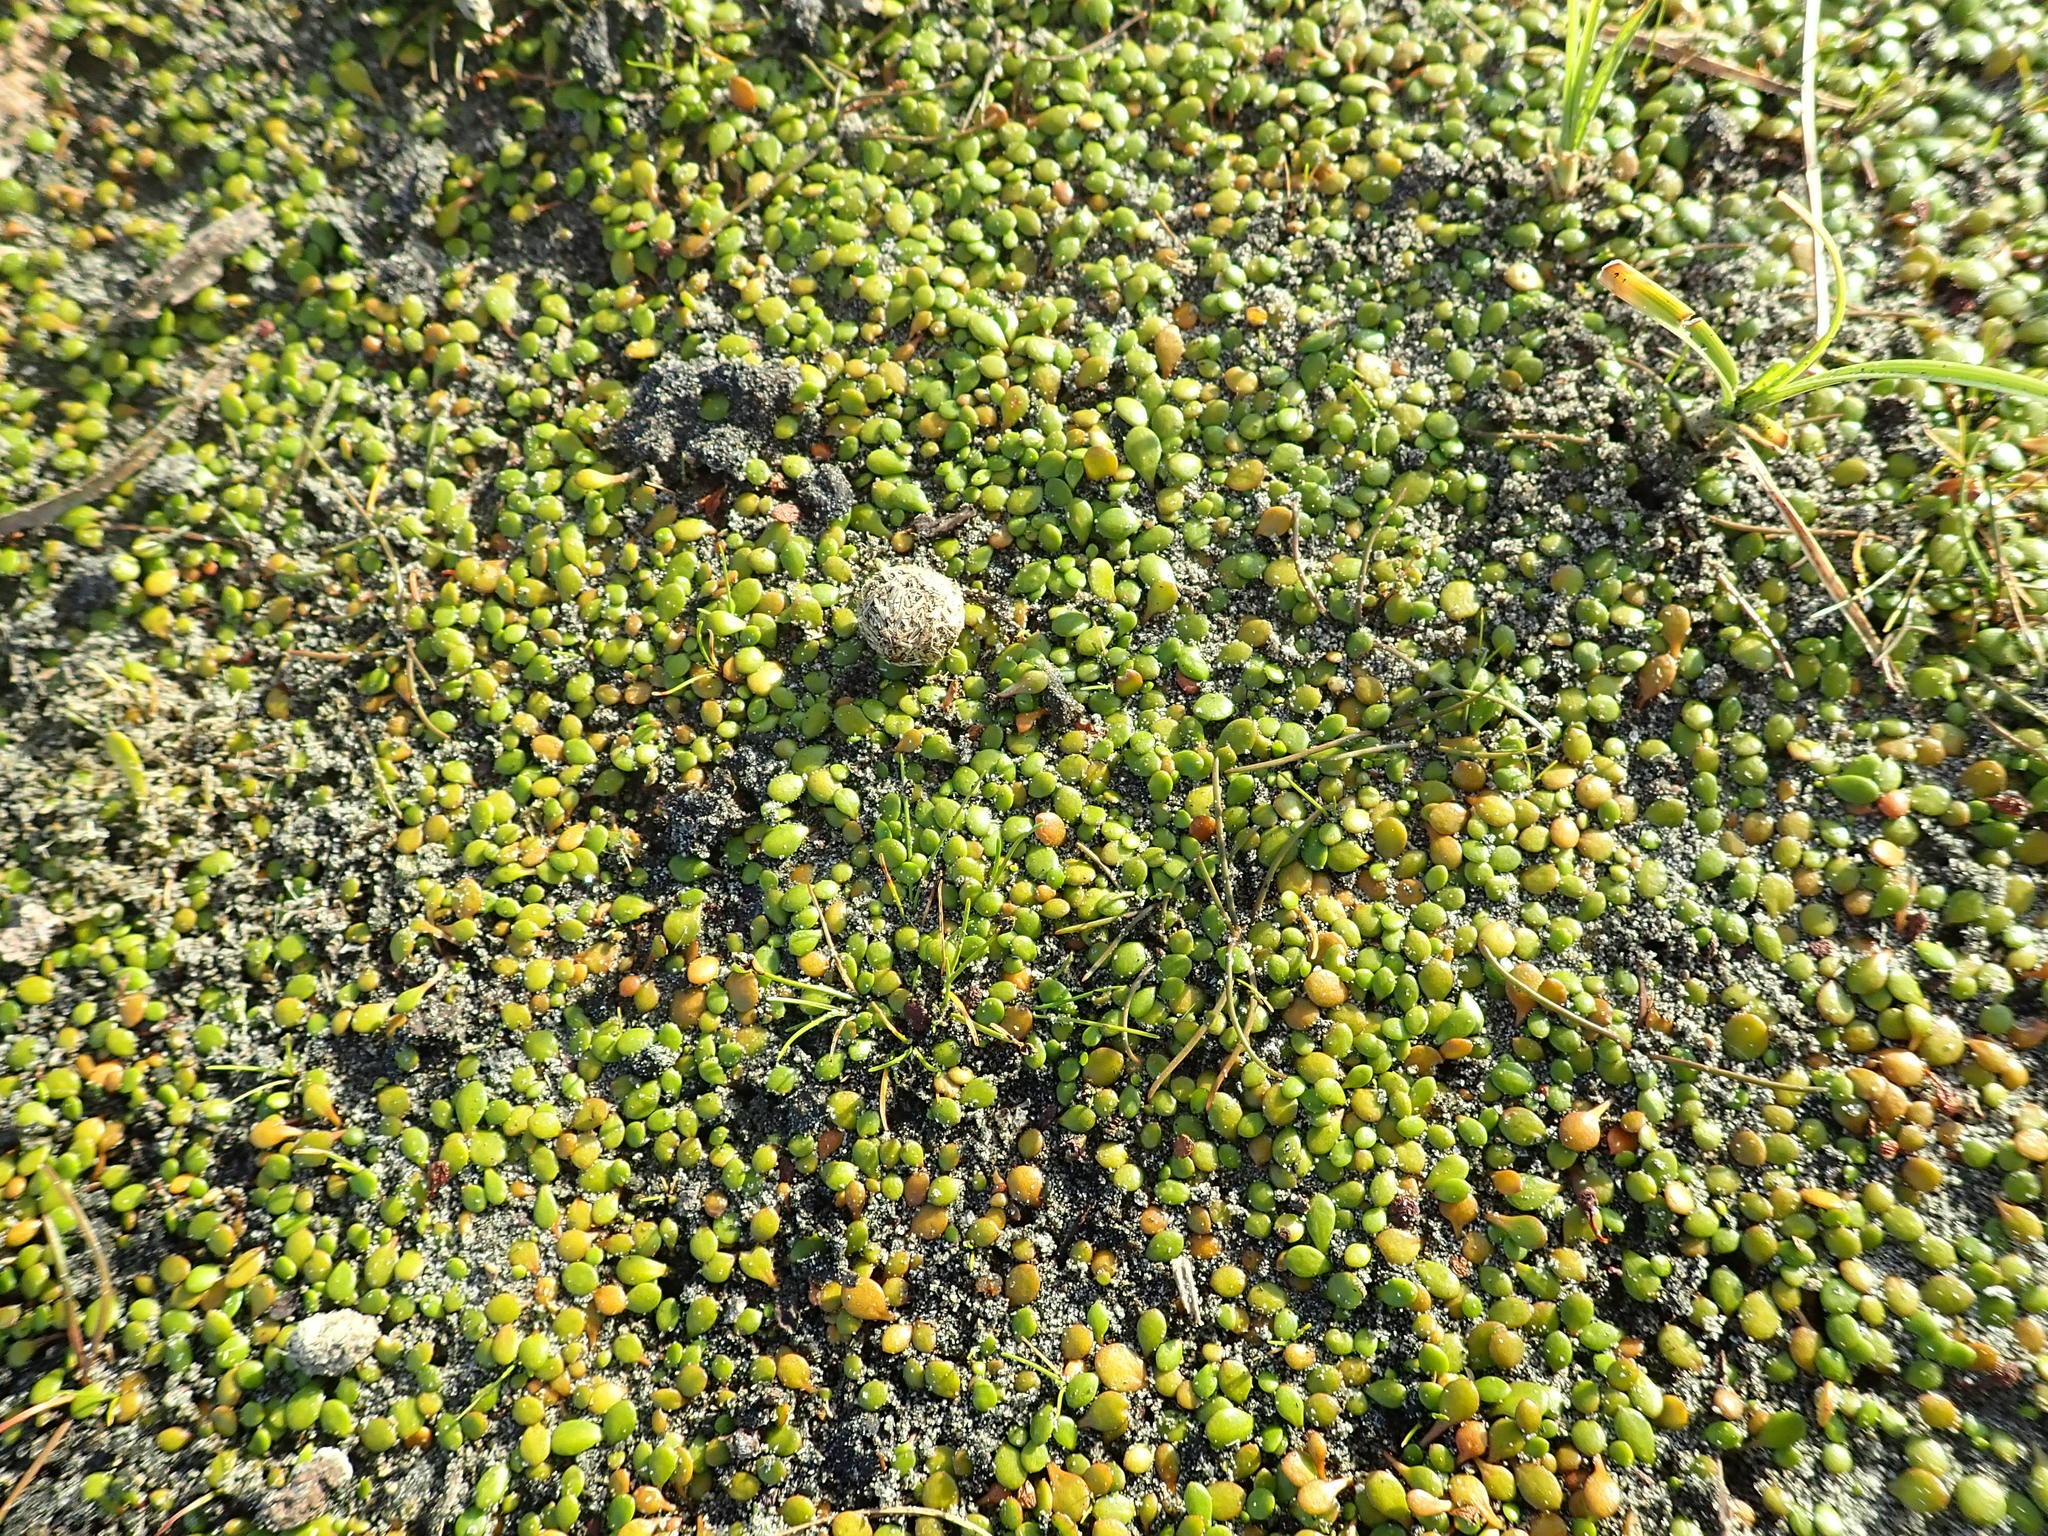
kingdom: Plantae
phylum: Tracheophyta
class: Magnoliopsida
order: Asterales
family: Goodeniaceae
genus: Goodenia
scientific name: Goodenia heenanii
